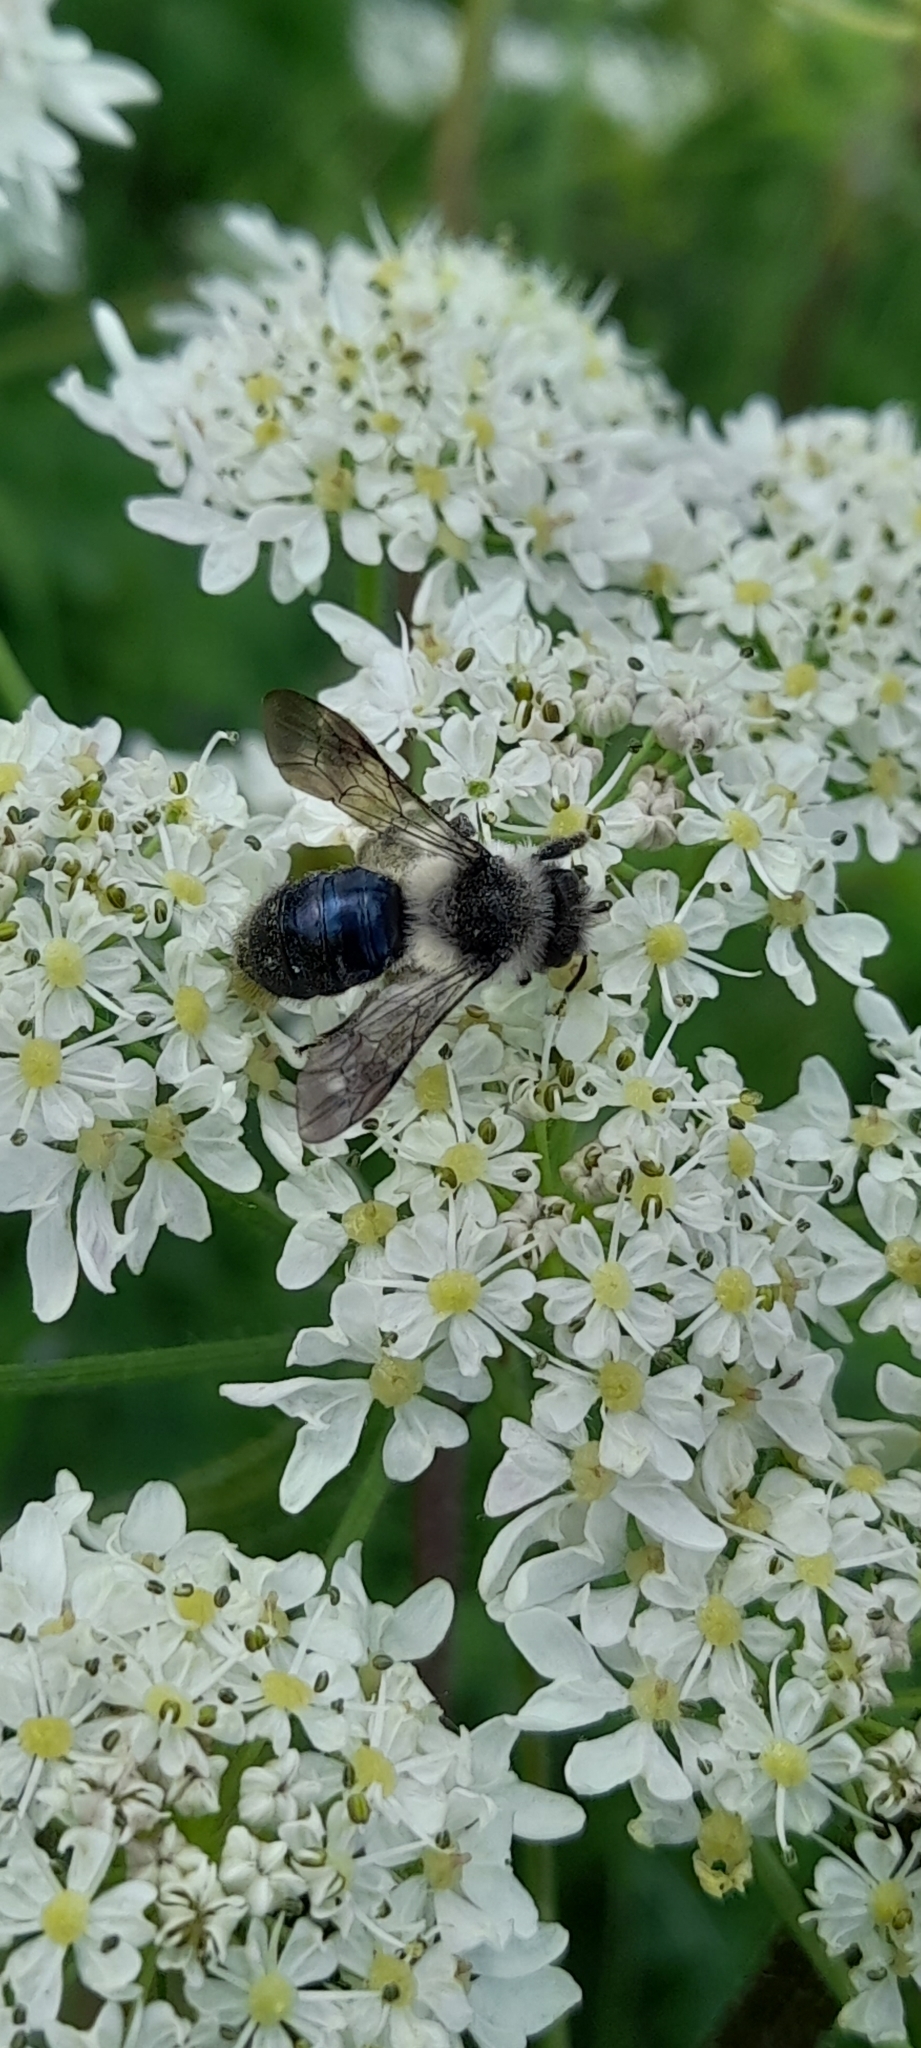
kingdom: Animalia
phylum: Arthropoda
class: Insecta
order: Hymenoptera
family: Andrenidae
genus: Andrena
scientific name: Andrena cineraria
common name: Ashy mining bee
